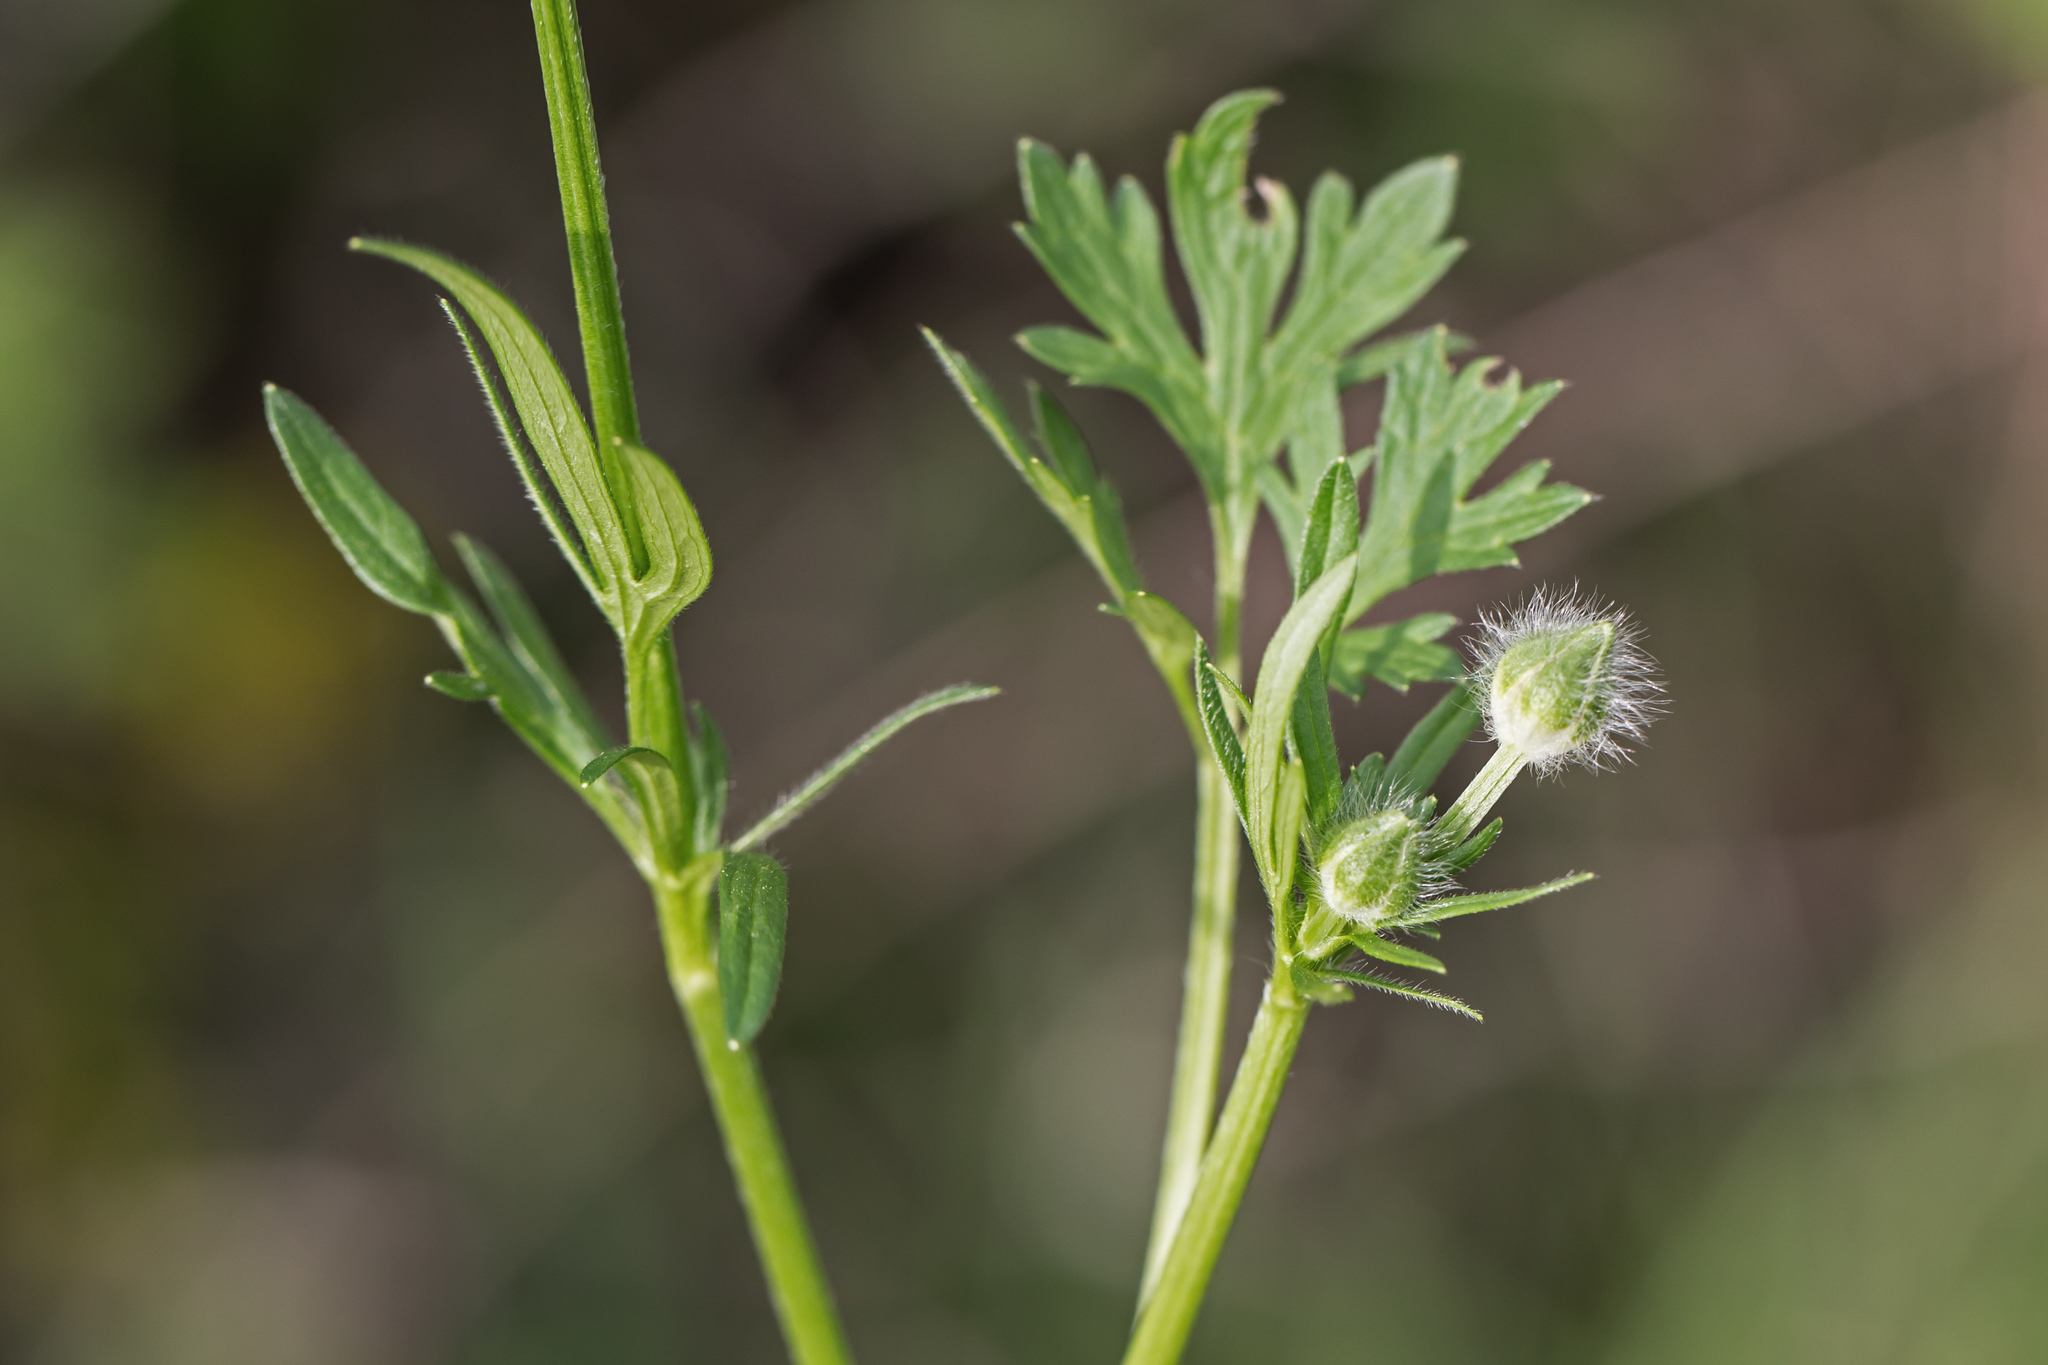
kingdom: Plantae
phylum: Tracheophyta
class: Magnoliopsida
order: Ranunculales
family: Ranunculaceae
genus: Ranunculus
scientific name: Ranunculus bulbosus
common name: Bulbous buttercup
